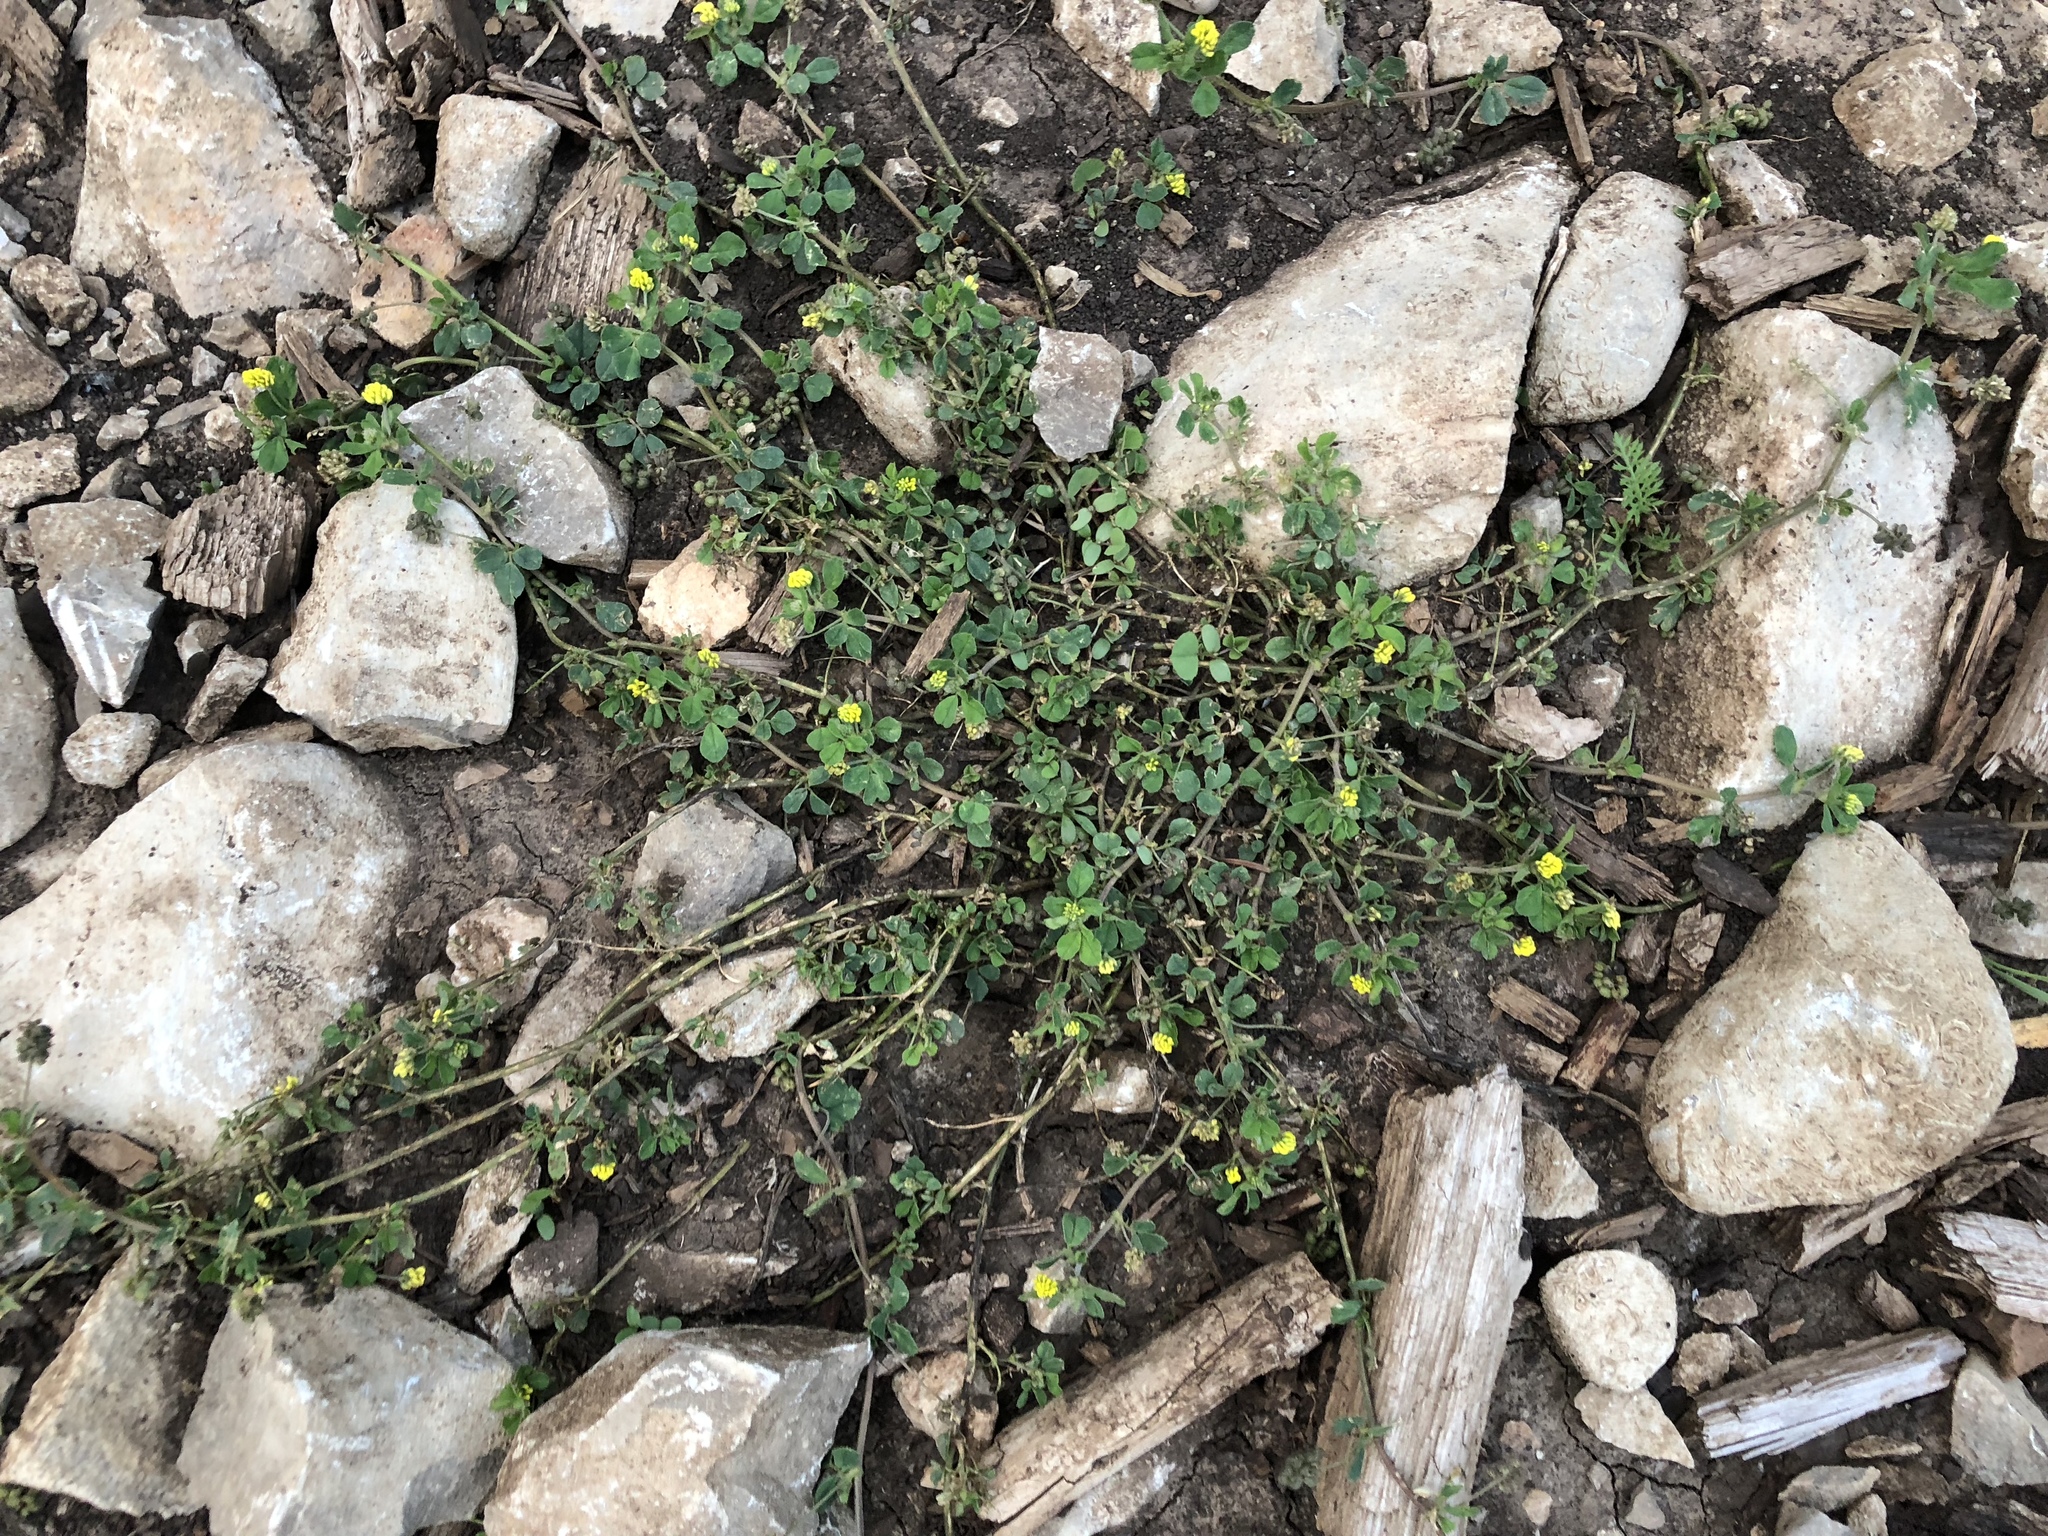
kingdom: Plantae
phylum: Tracheophyta
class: Magnoliopsida
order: Fabales
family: Fabaceae
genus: Medicago
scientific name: Medicago lupulina
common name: Black medick
